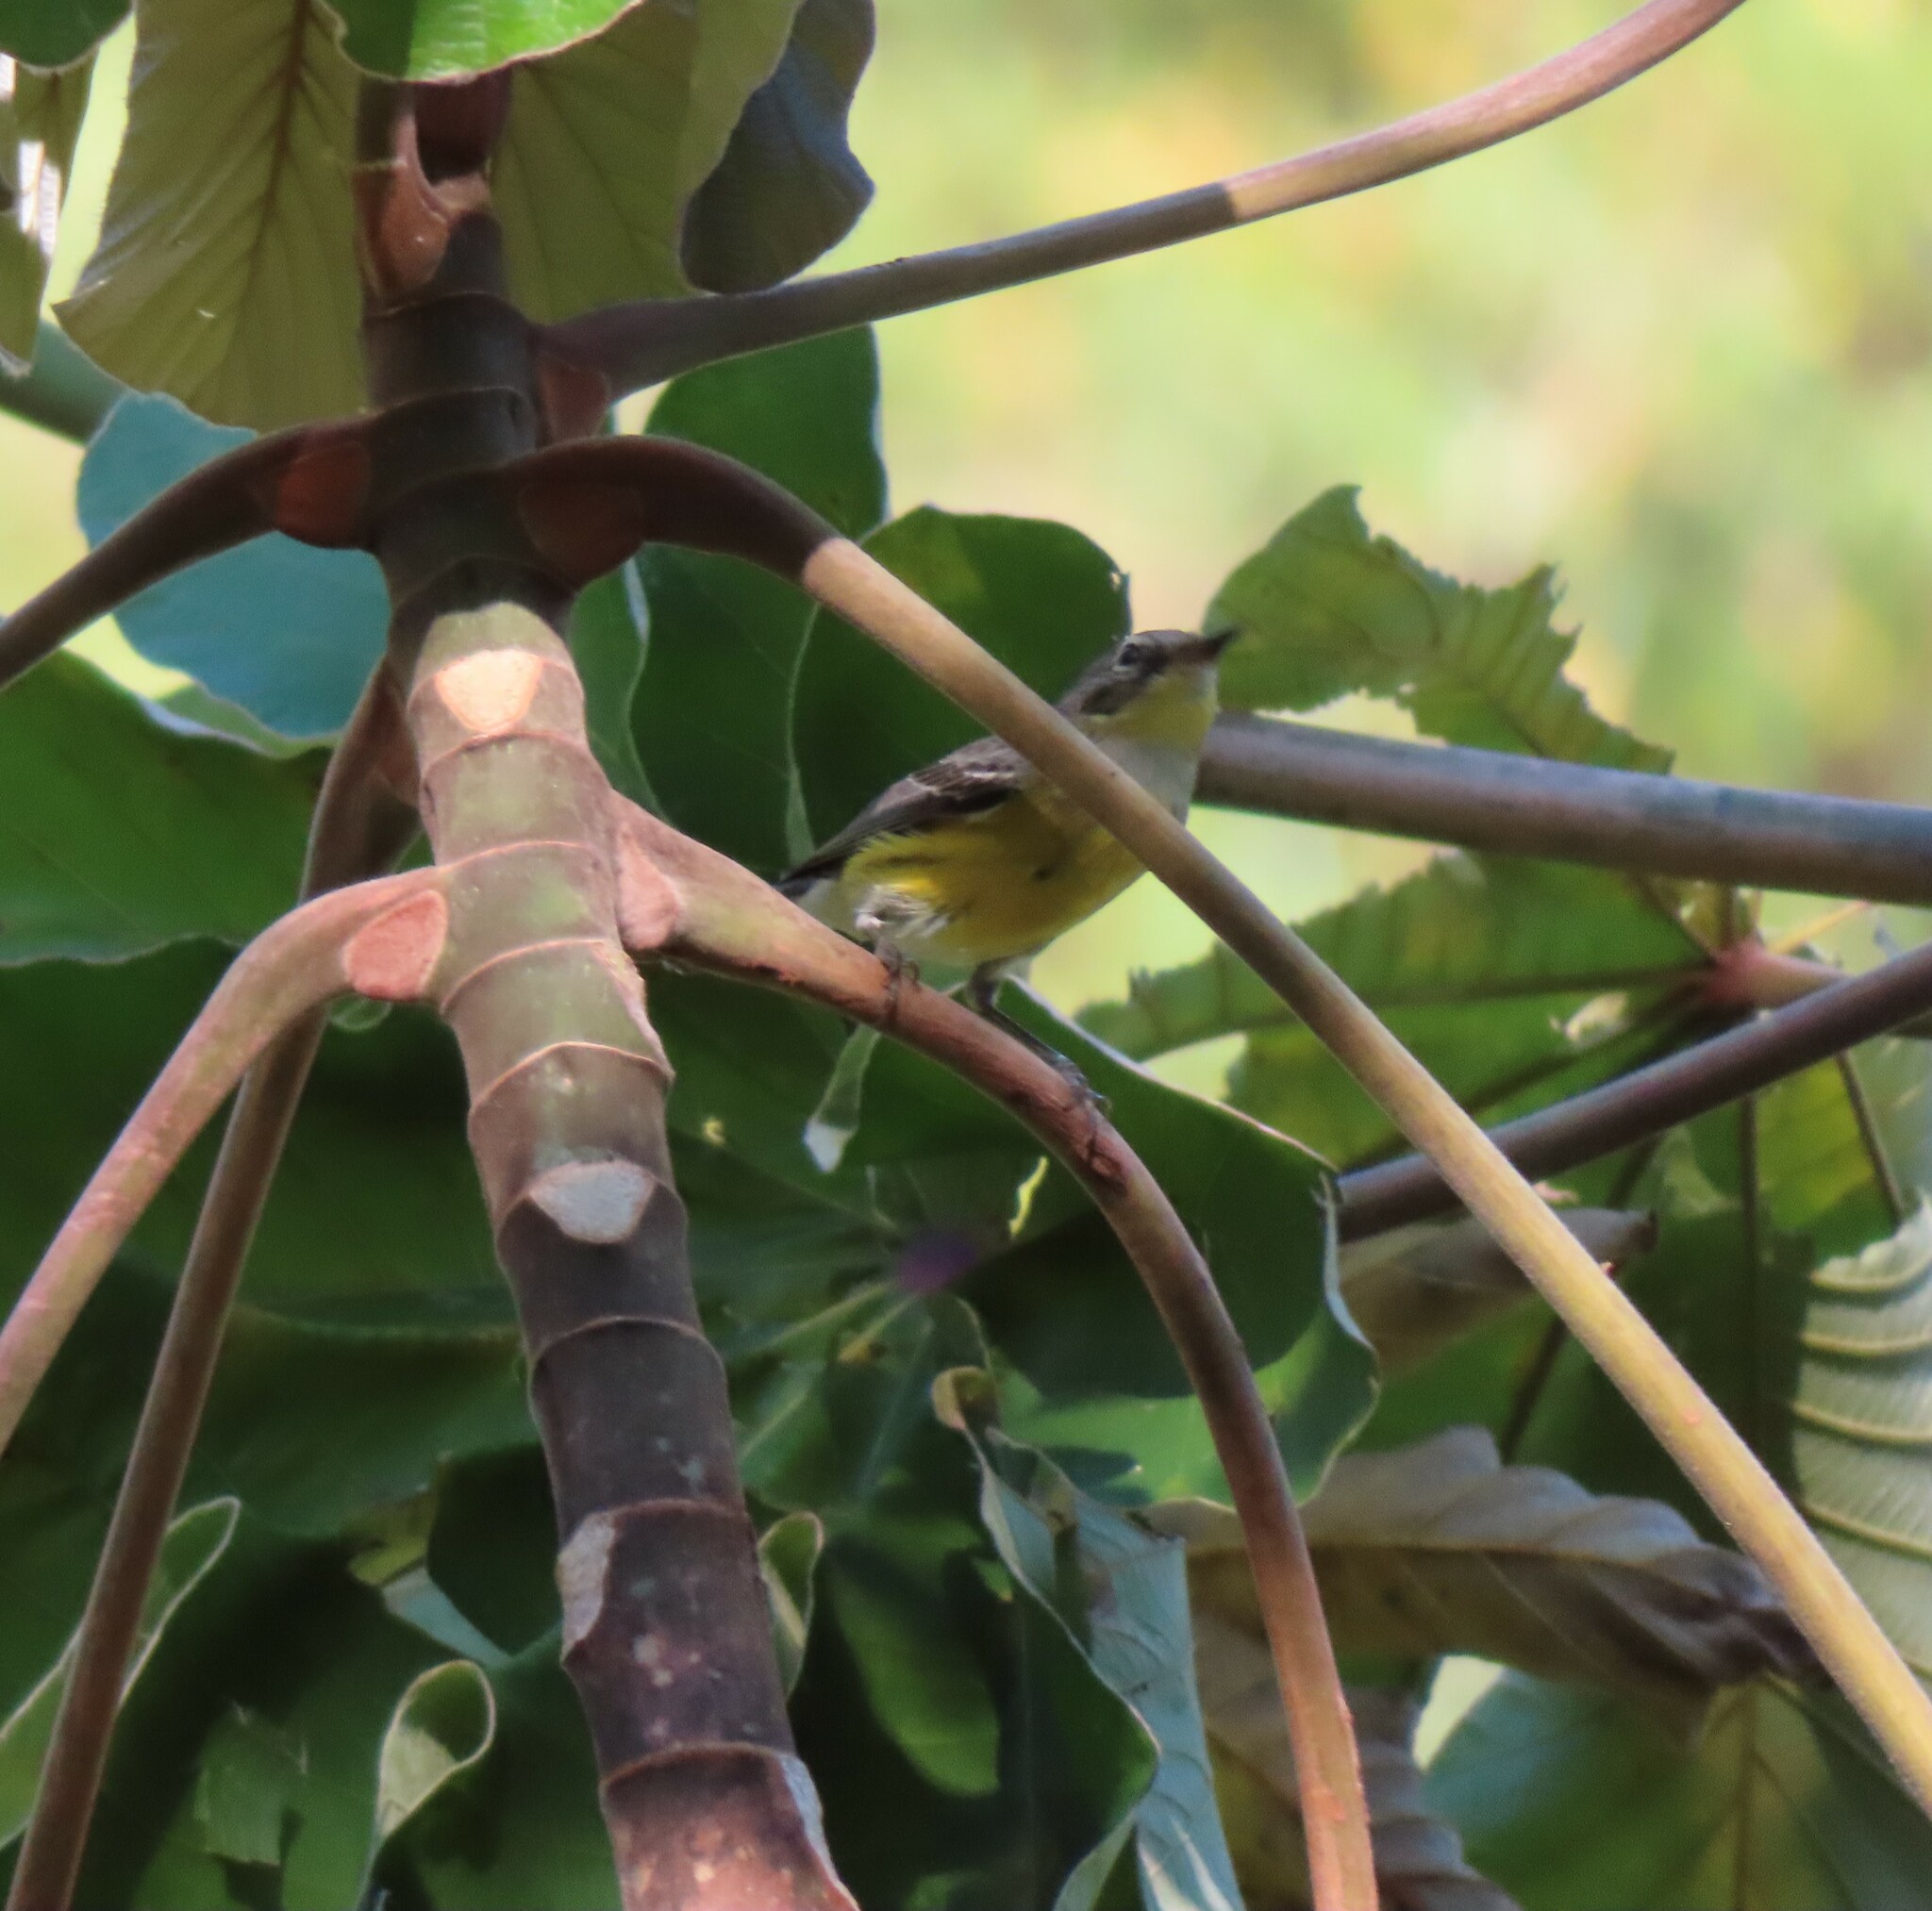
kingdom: Animalia
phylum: Chordata
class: Aves
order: Passeriformes
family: Parulidae
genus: Setophaga
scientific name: Setophaga magnolia
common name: Magnolia warbler
